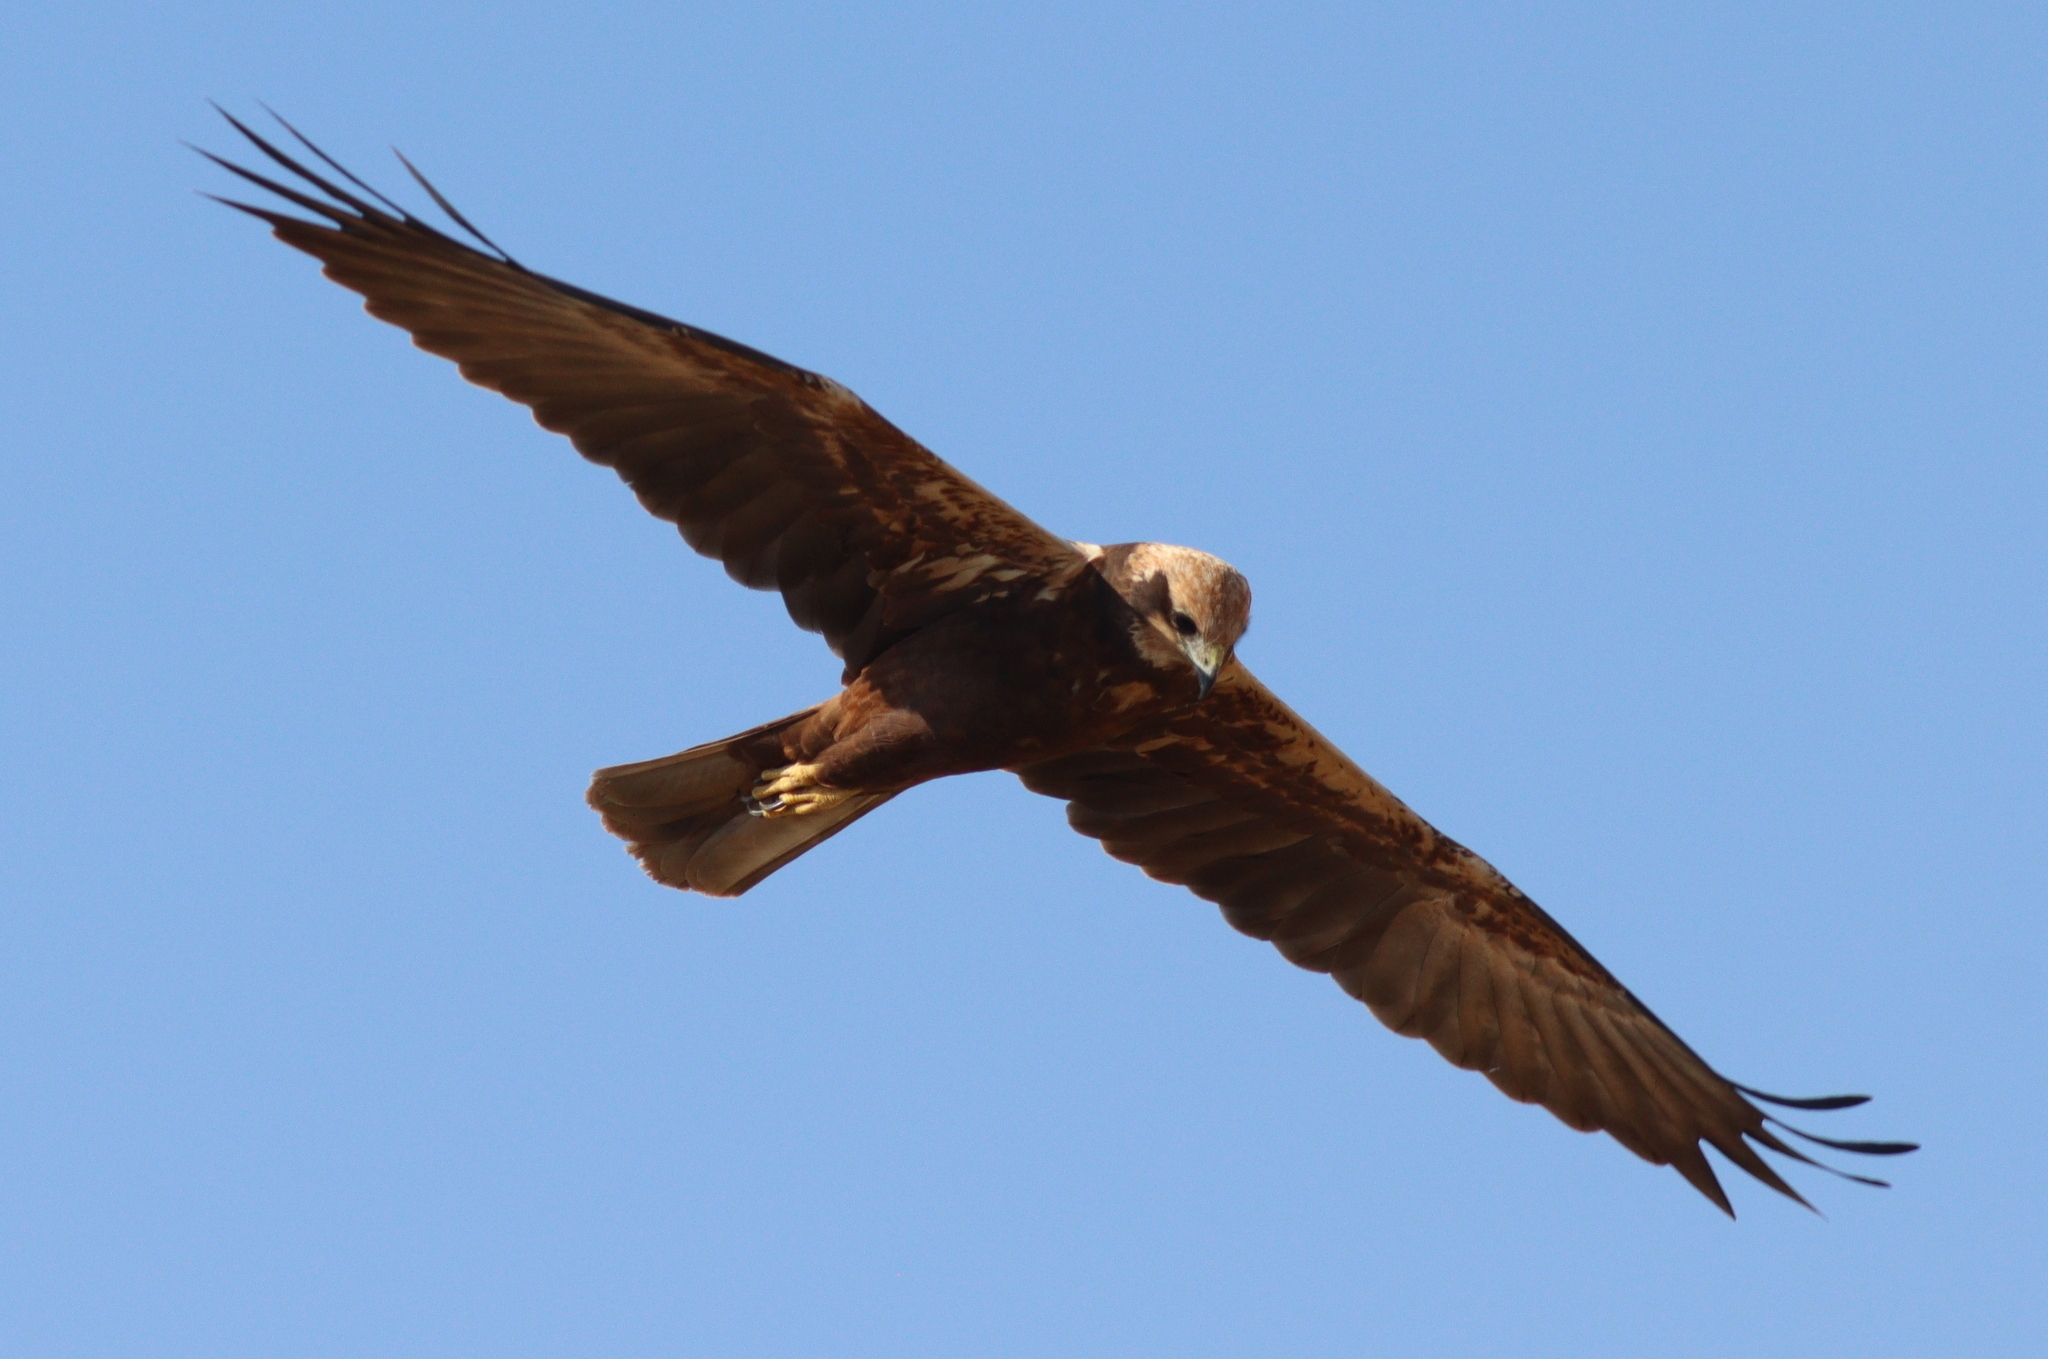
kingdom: Animalia
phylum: Chordata
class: Aves
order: Accipitriformes
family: Accipitridae
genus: Circus
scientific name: Circus aeruginosus
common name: Western marsh harrier
